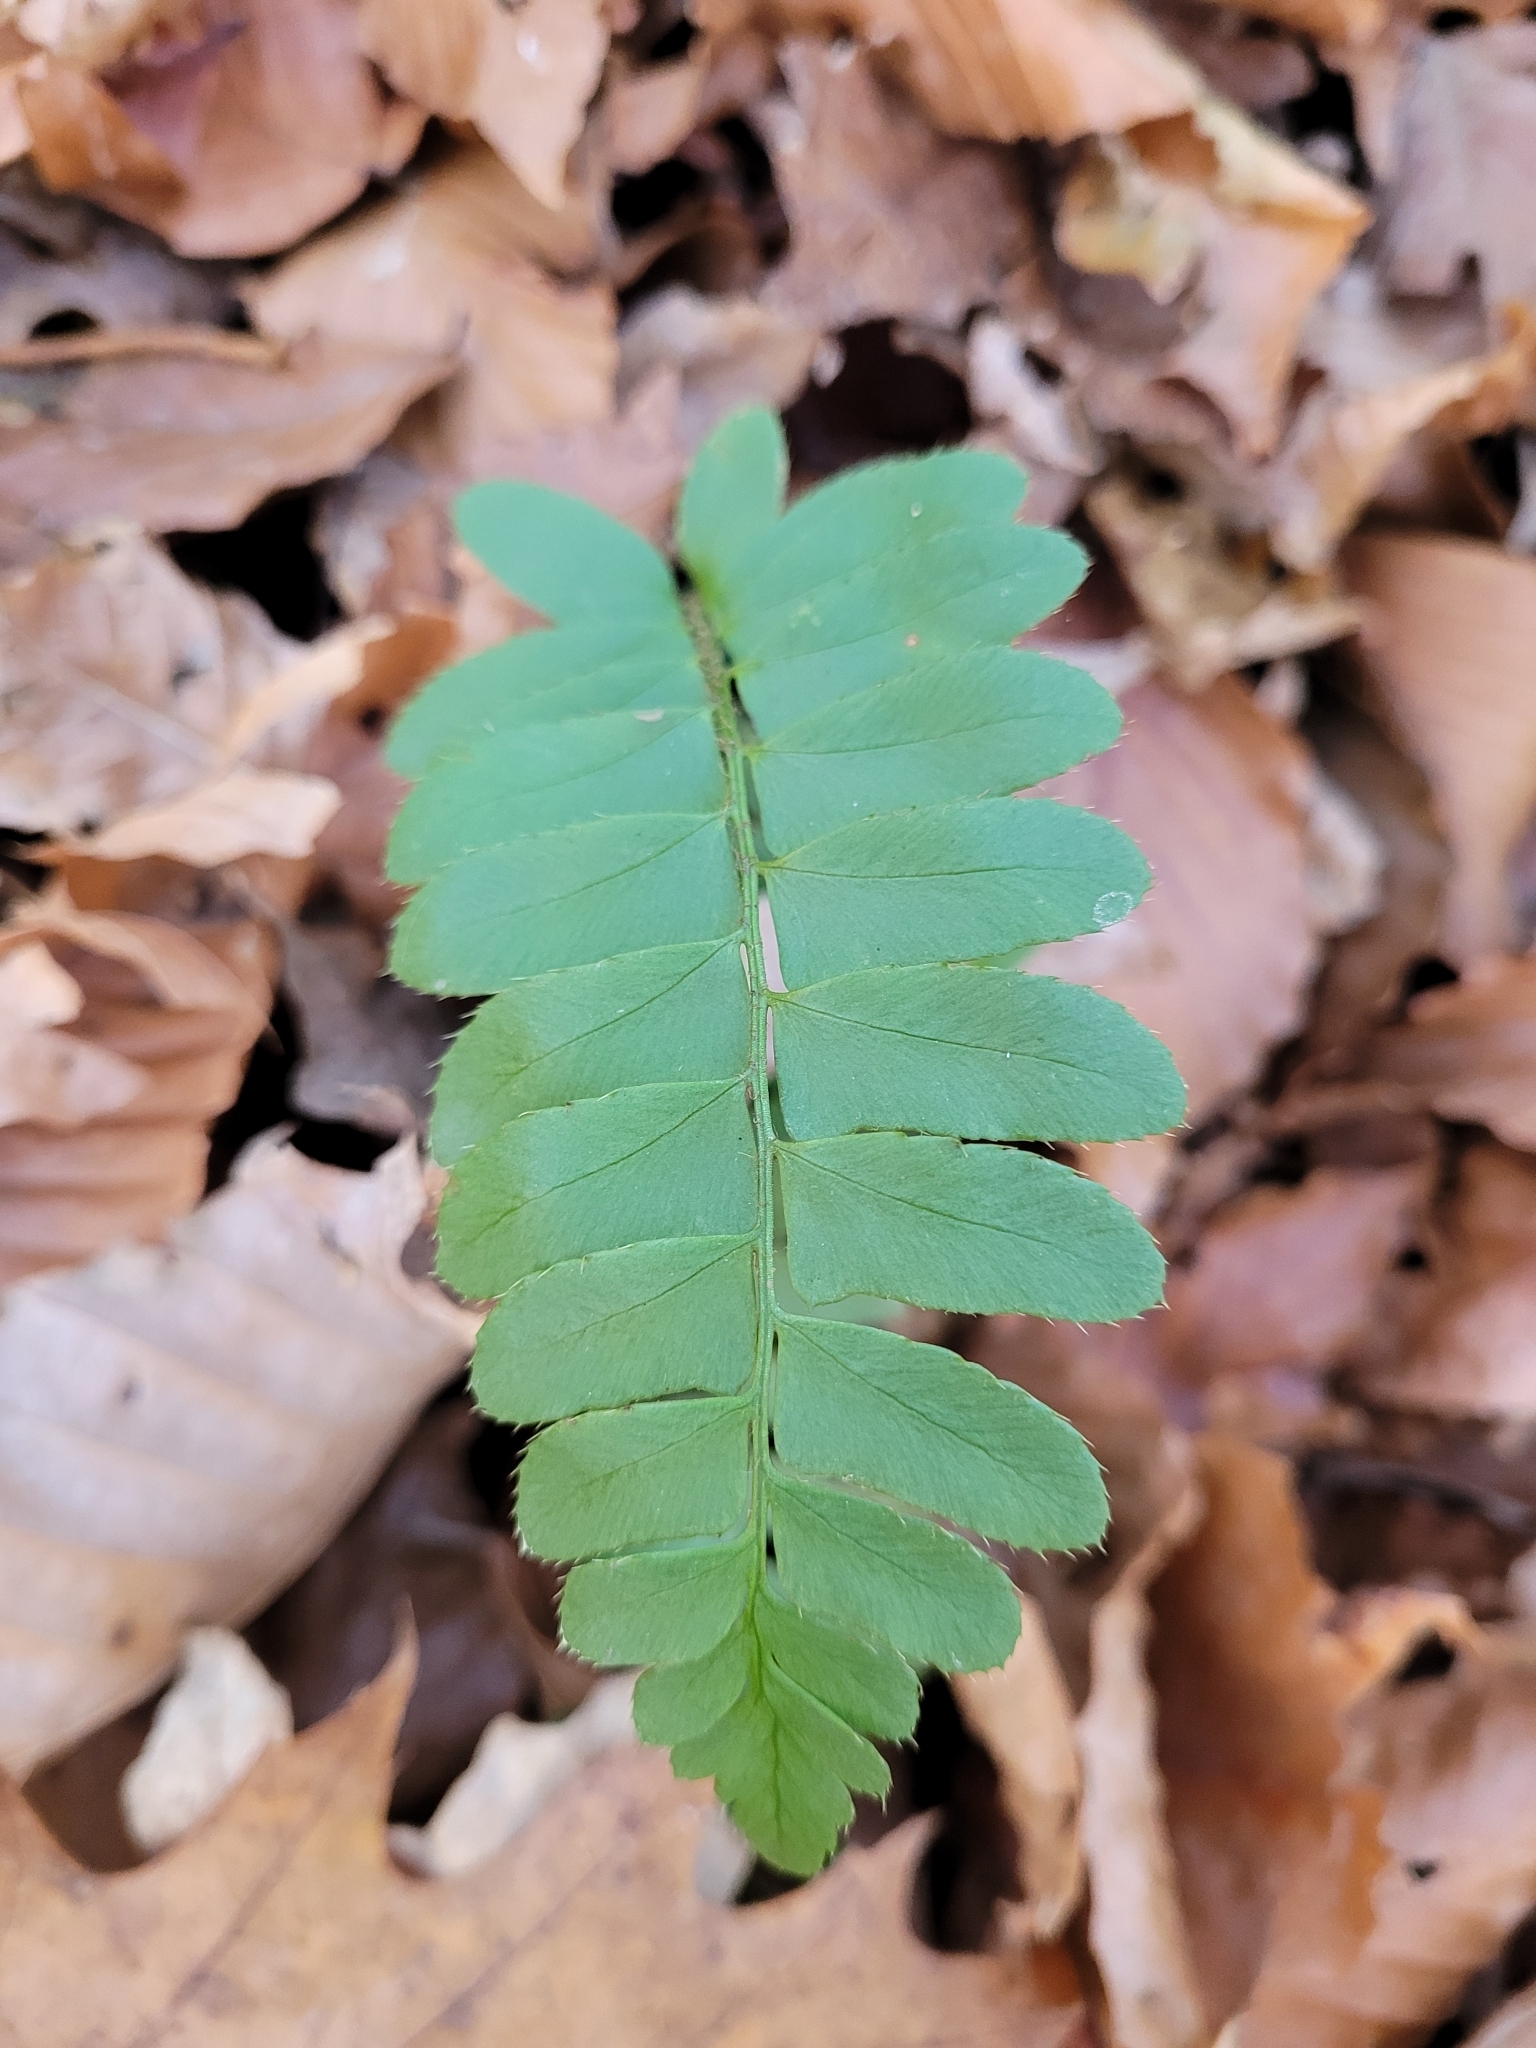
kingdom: Plantae
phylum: Tracheophyta
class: Polypodiopsida
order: Polypodiales
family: Dryopteridaceae
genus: Polystichum
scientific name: Polystichum acrostichoides
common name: Christmas fern
